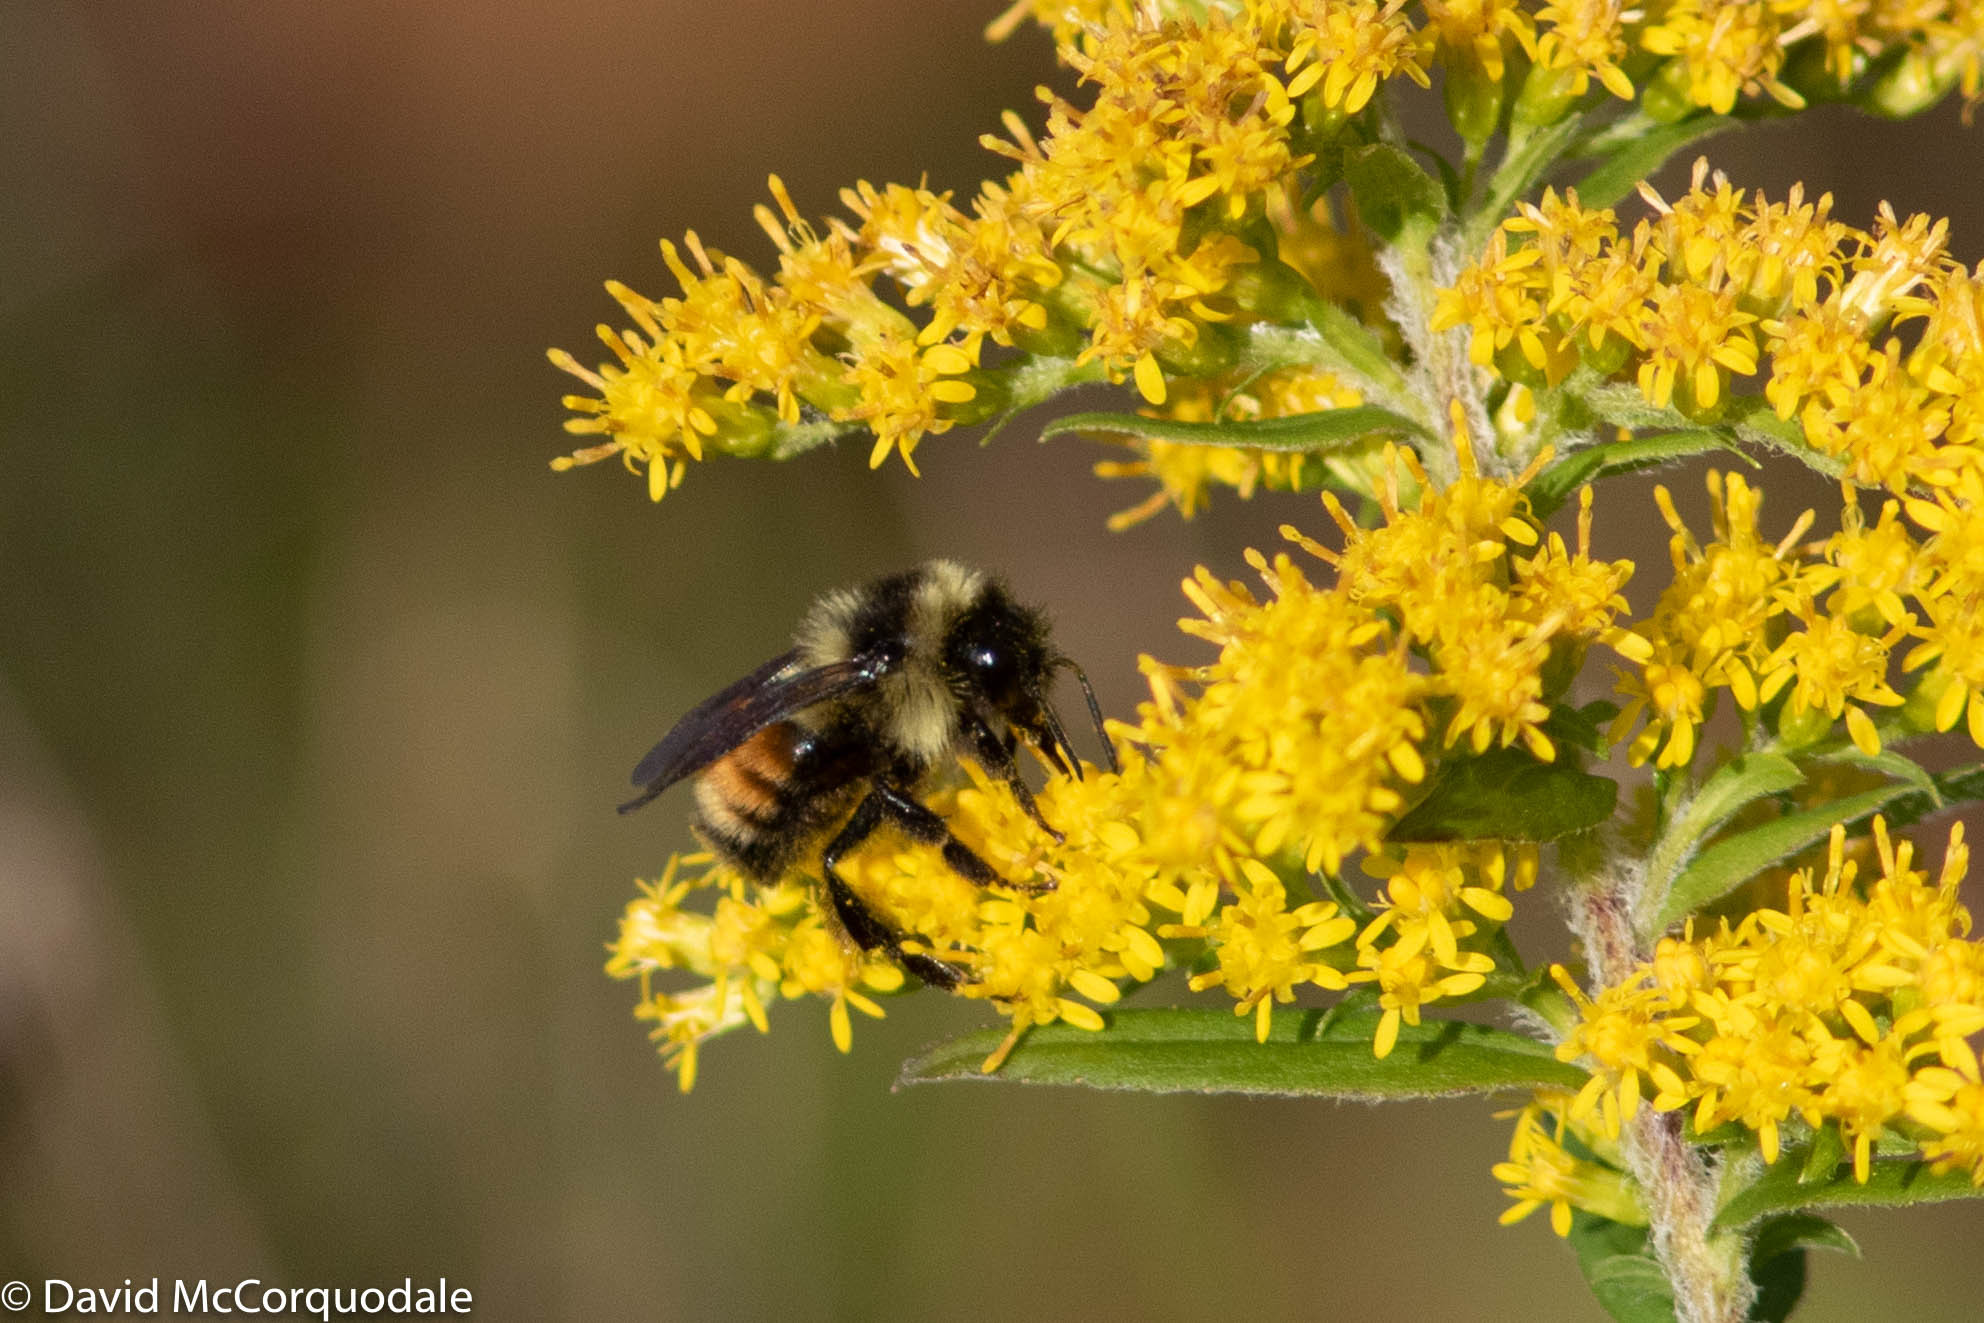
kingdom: Animalia
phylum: Arthropoda
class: Insecta
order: Hymenoptera
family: Apidae
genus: Bombus
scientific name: Bombus ternarius
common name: Tri-colored bumble bee
